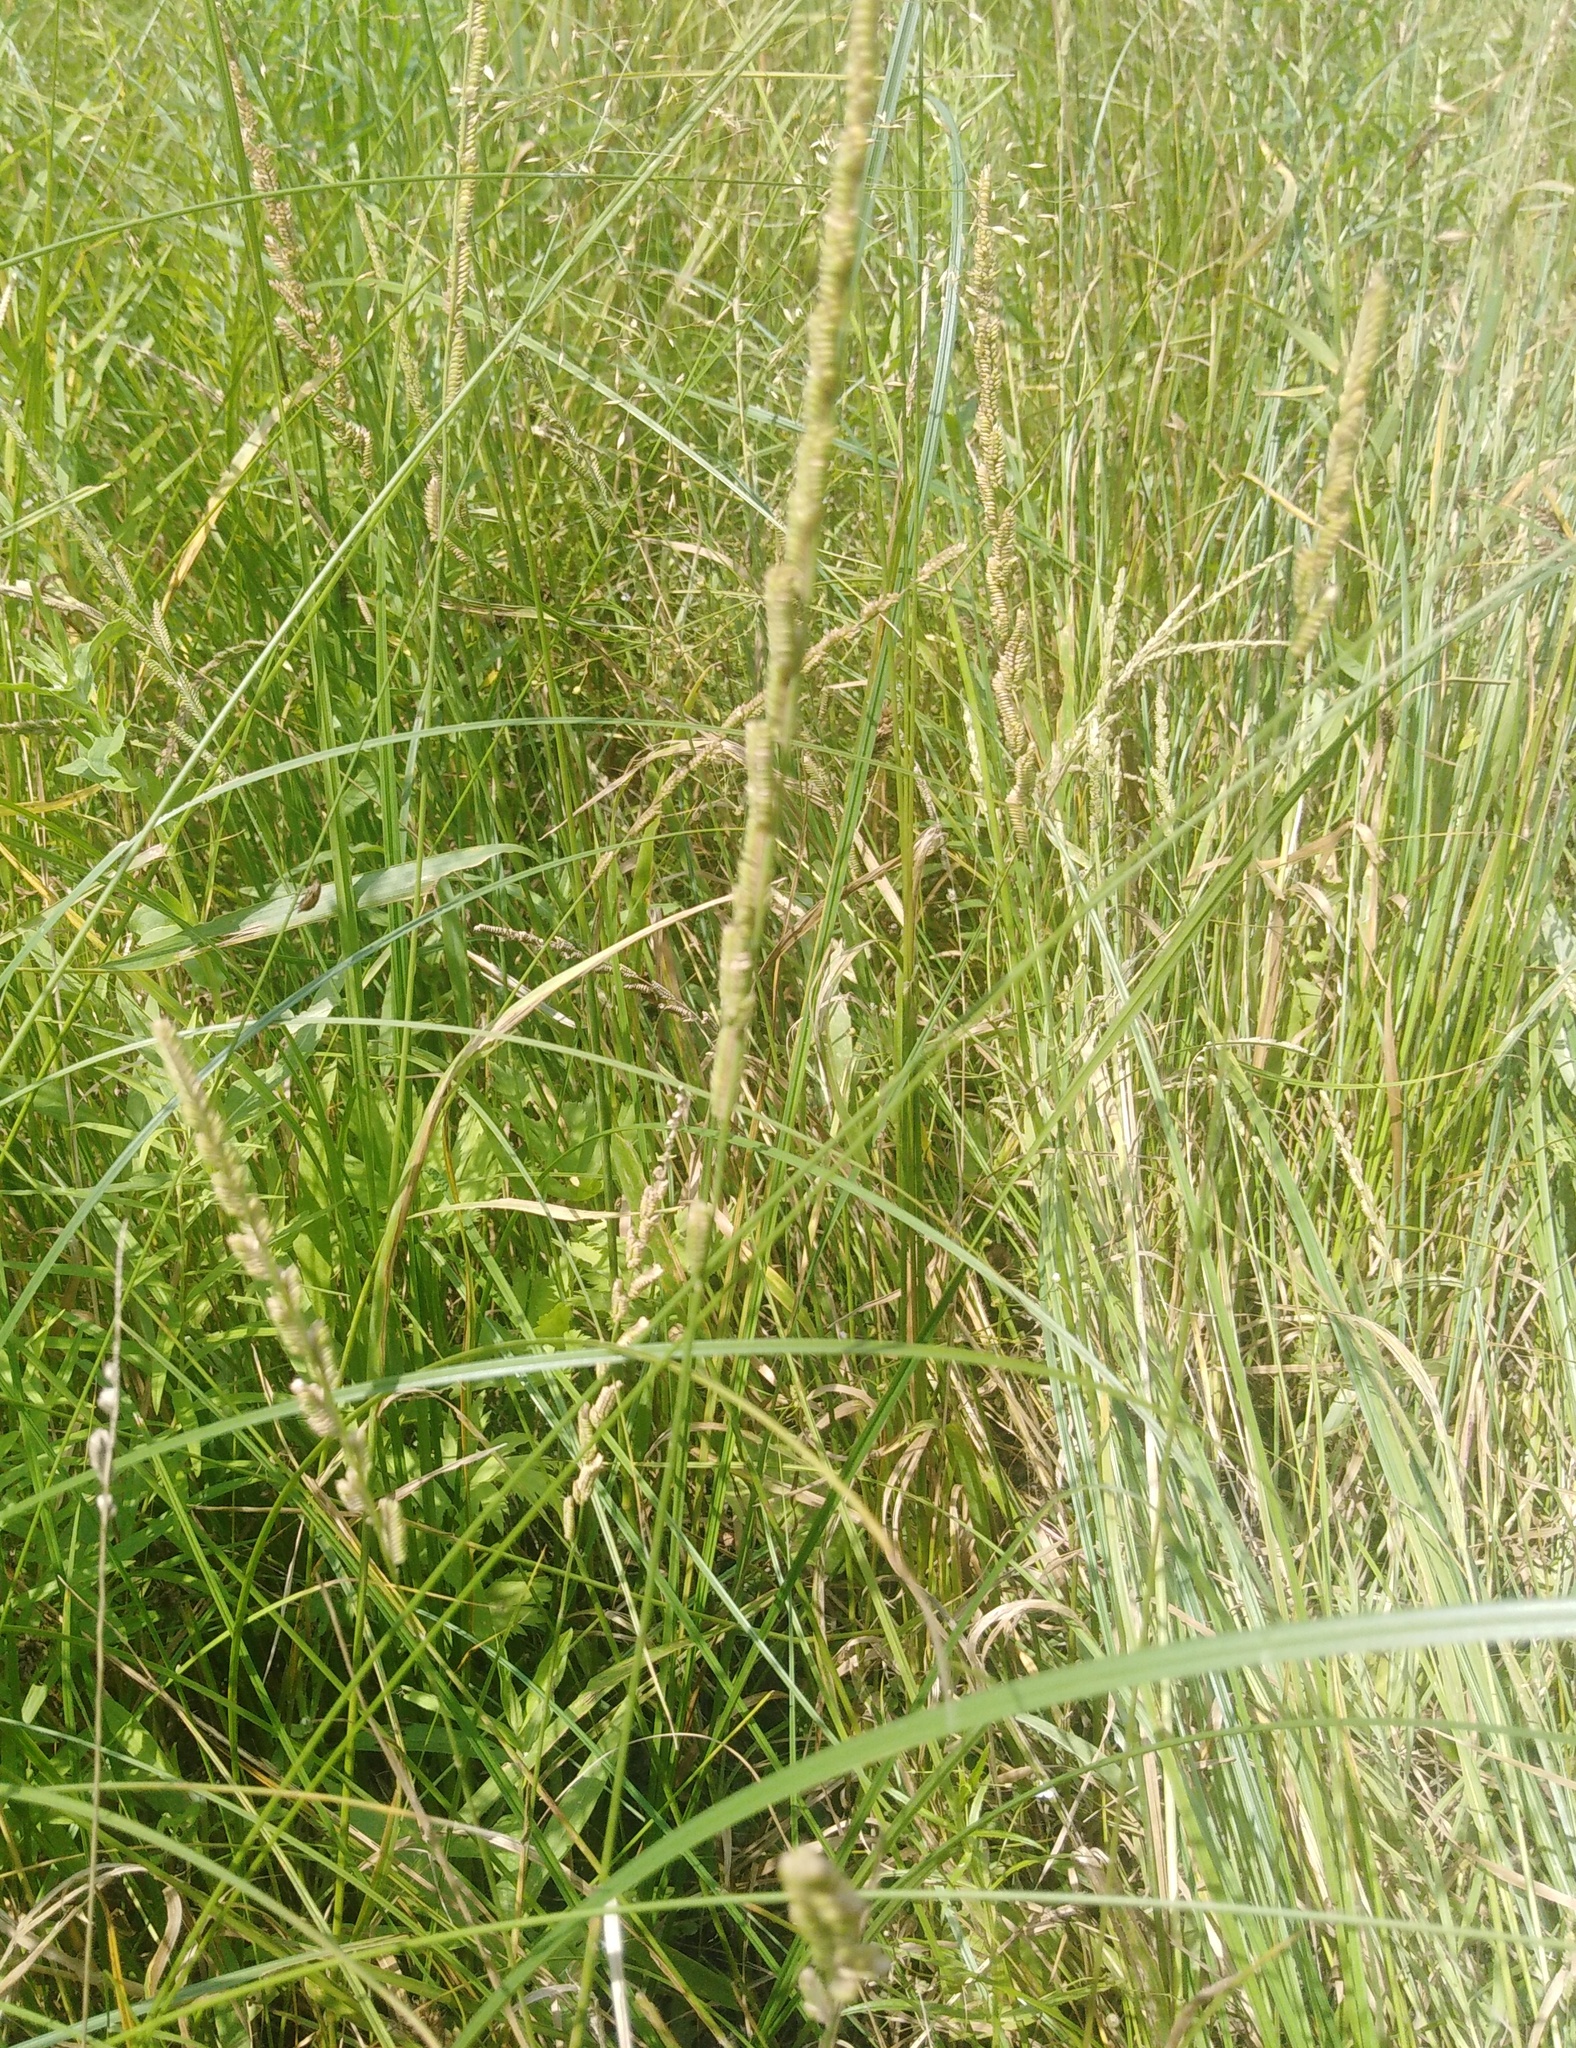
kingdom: Plantae
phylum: Tracheophyta
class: Liliopsida
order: Poales
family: Poaceae
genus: Beckmannia
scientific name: Beckmannia eruciformis
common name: European slough-grass
